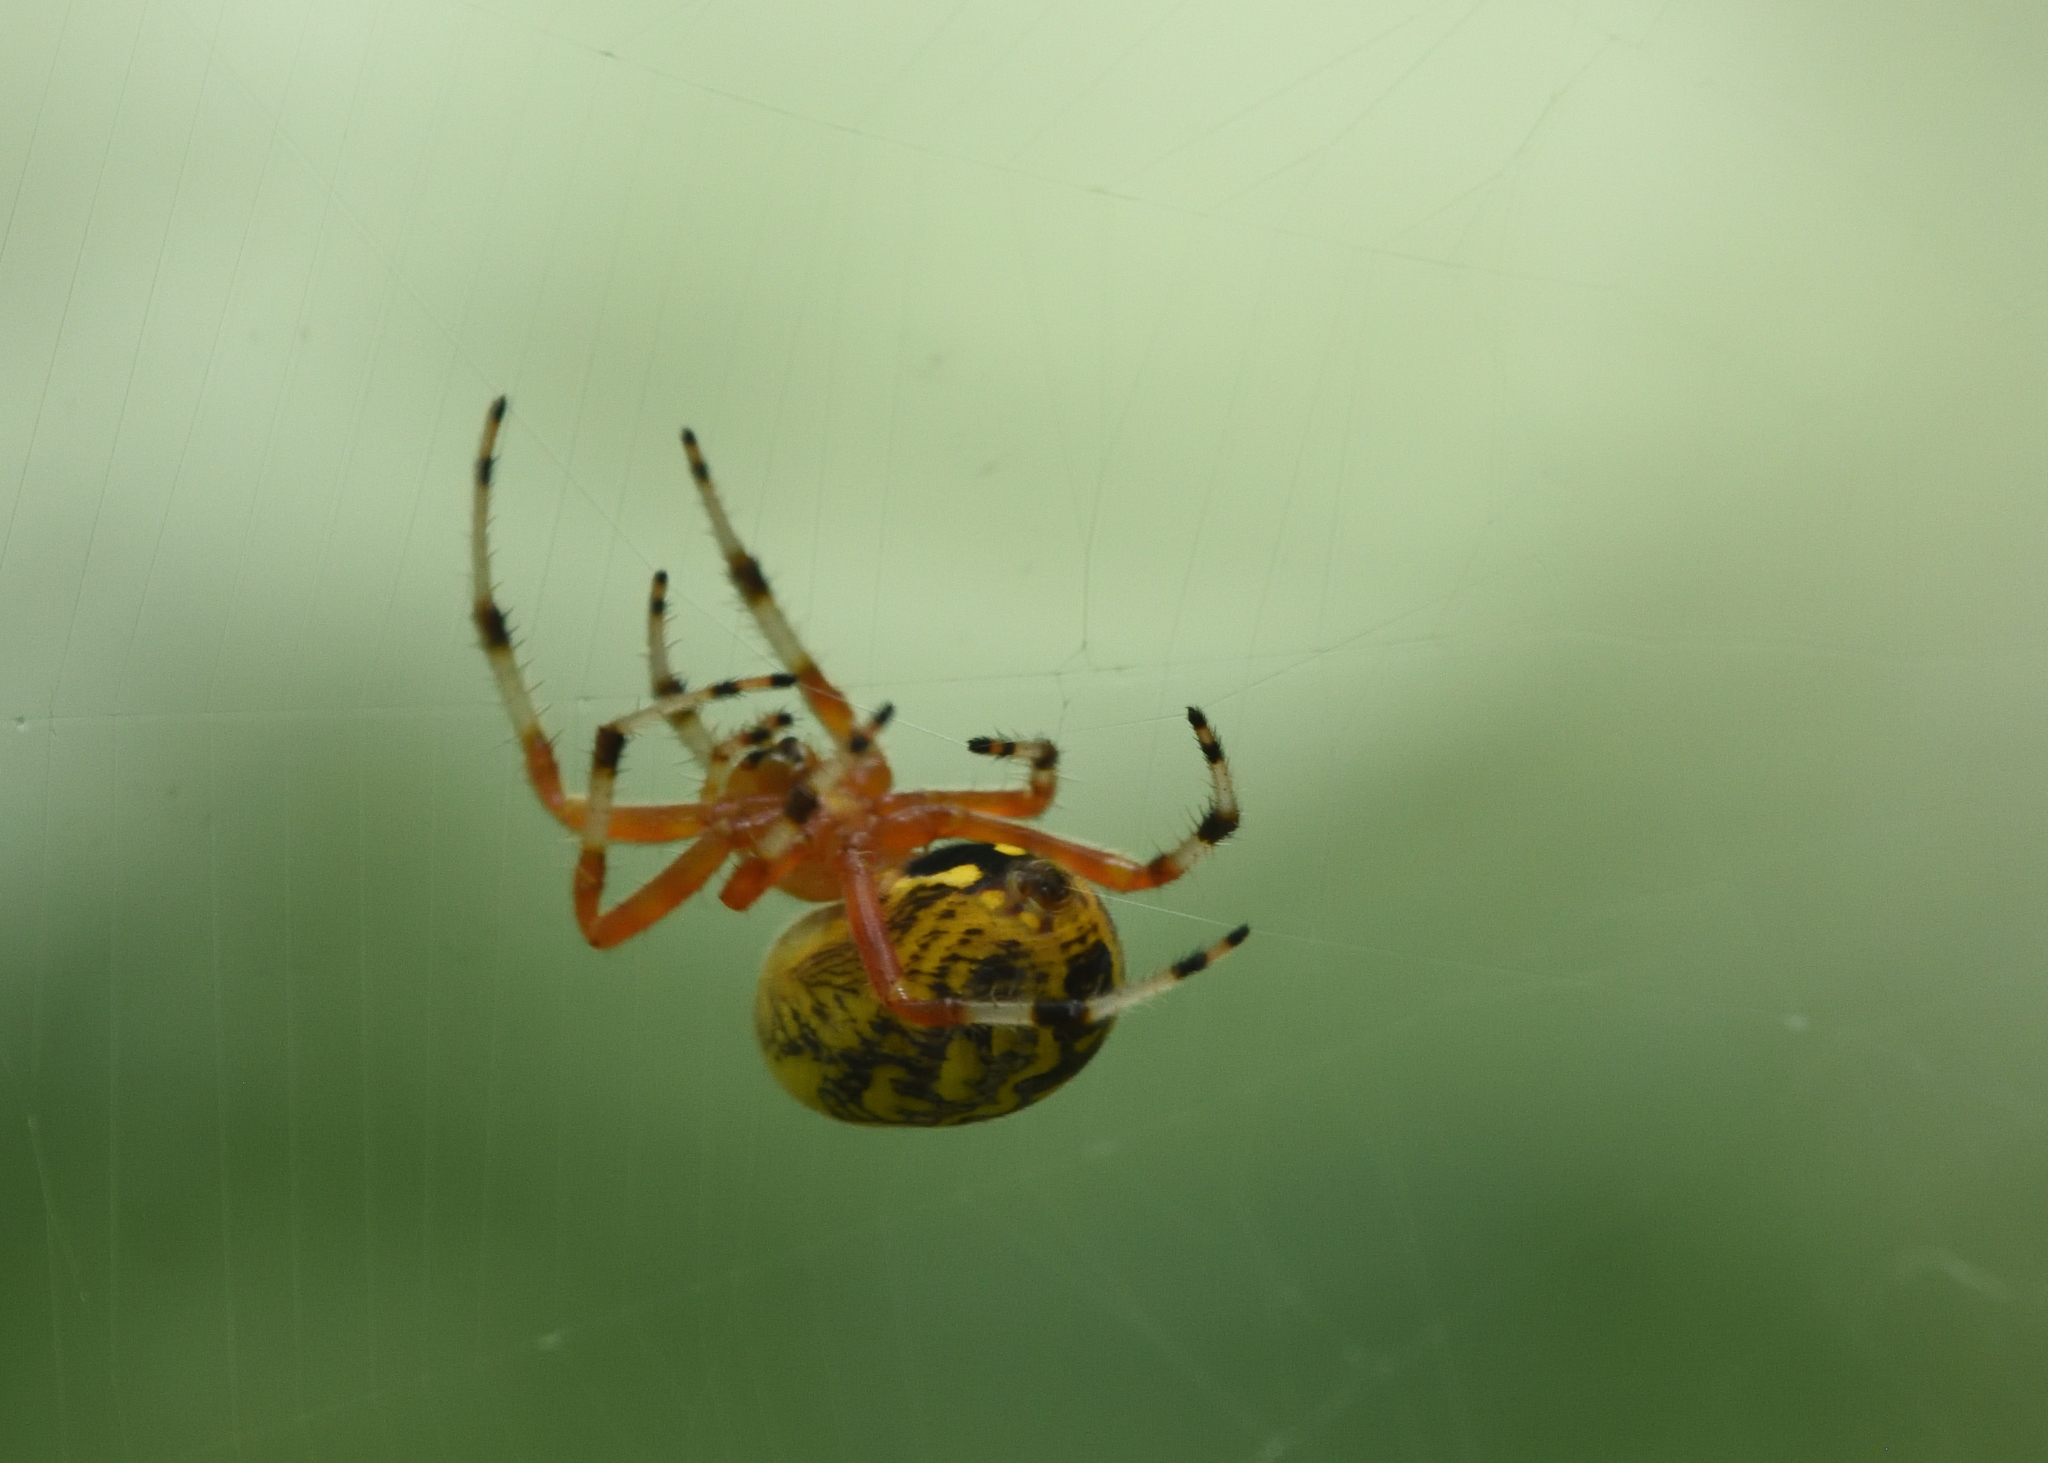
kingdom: Animalia
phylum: Arthropoda
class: Arachnida
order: Araneae
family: Araneidae
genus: Araneus
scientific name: Araneus marmoreus
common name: Marbled orbweaver
